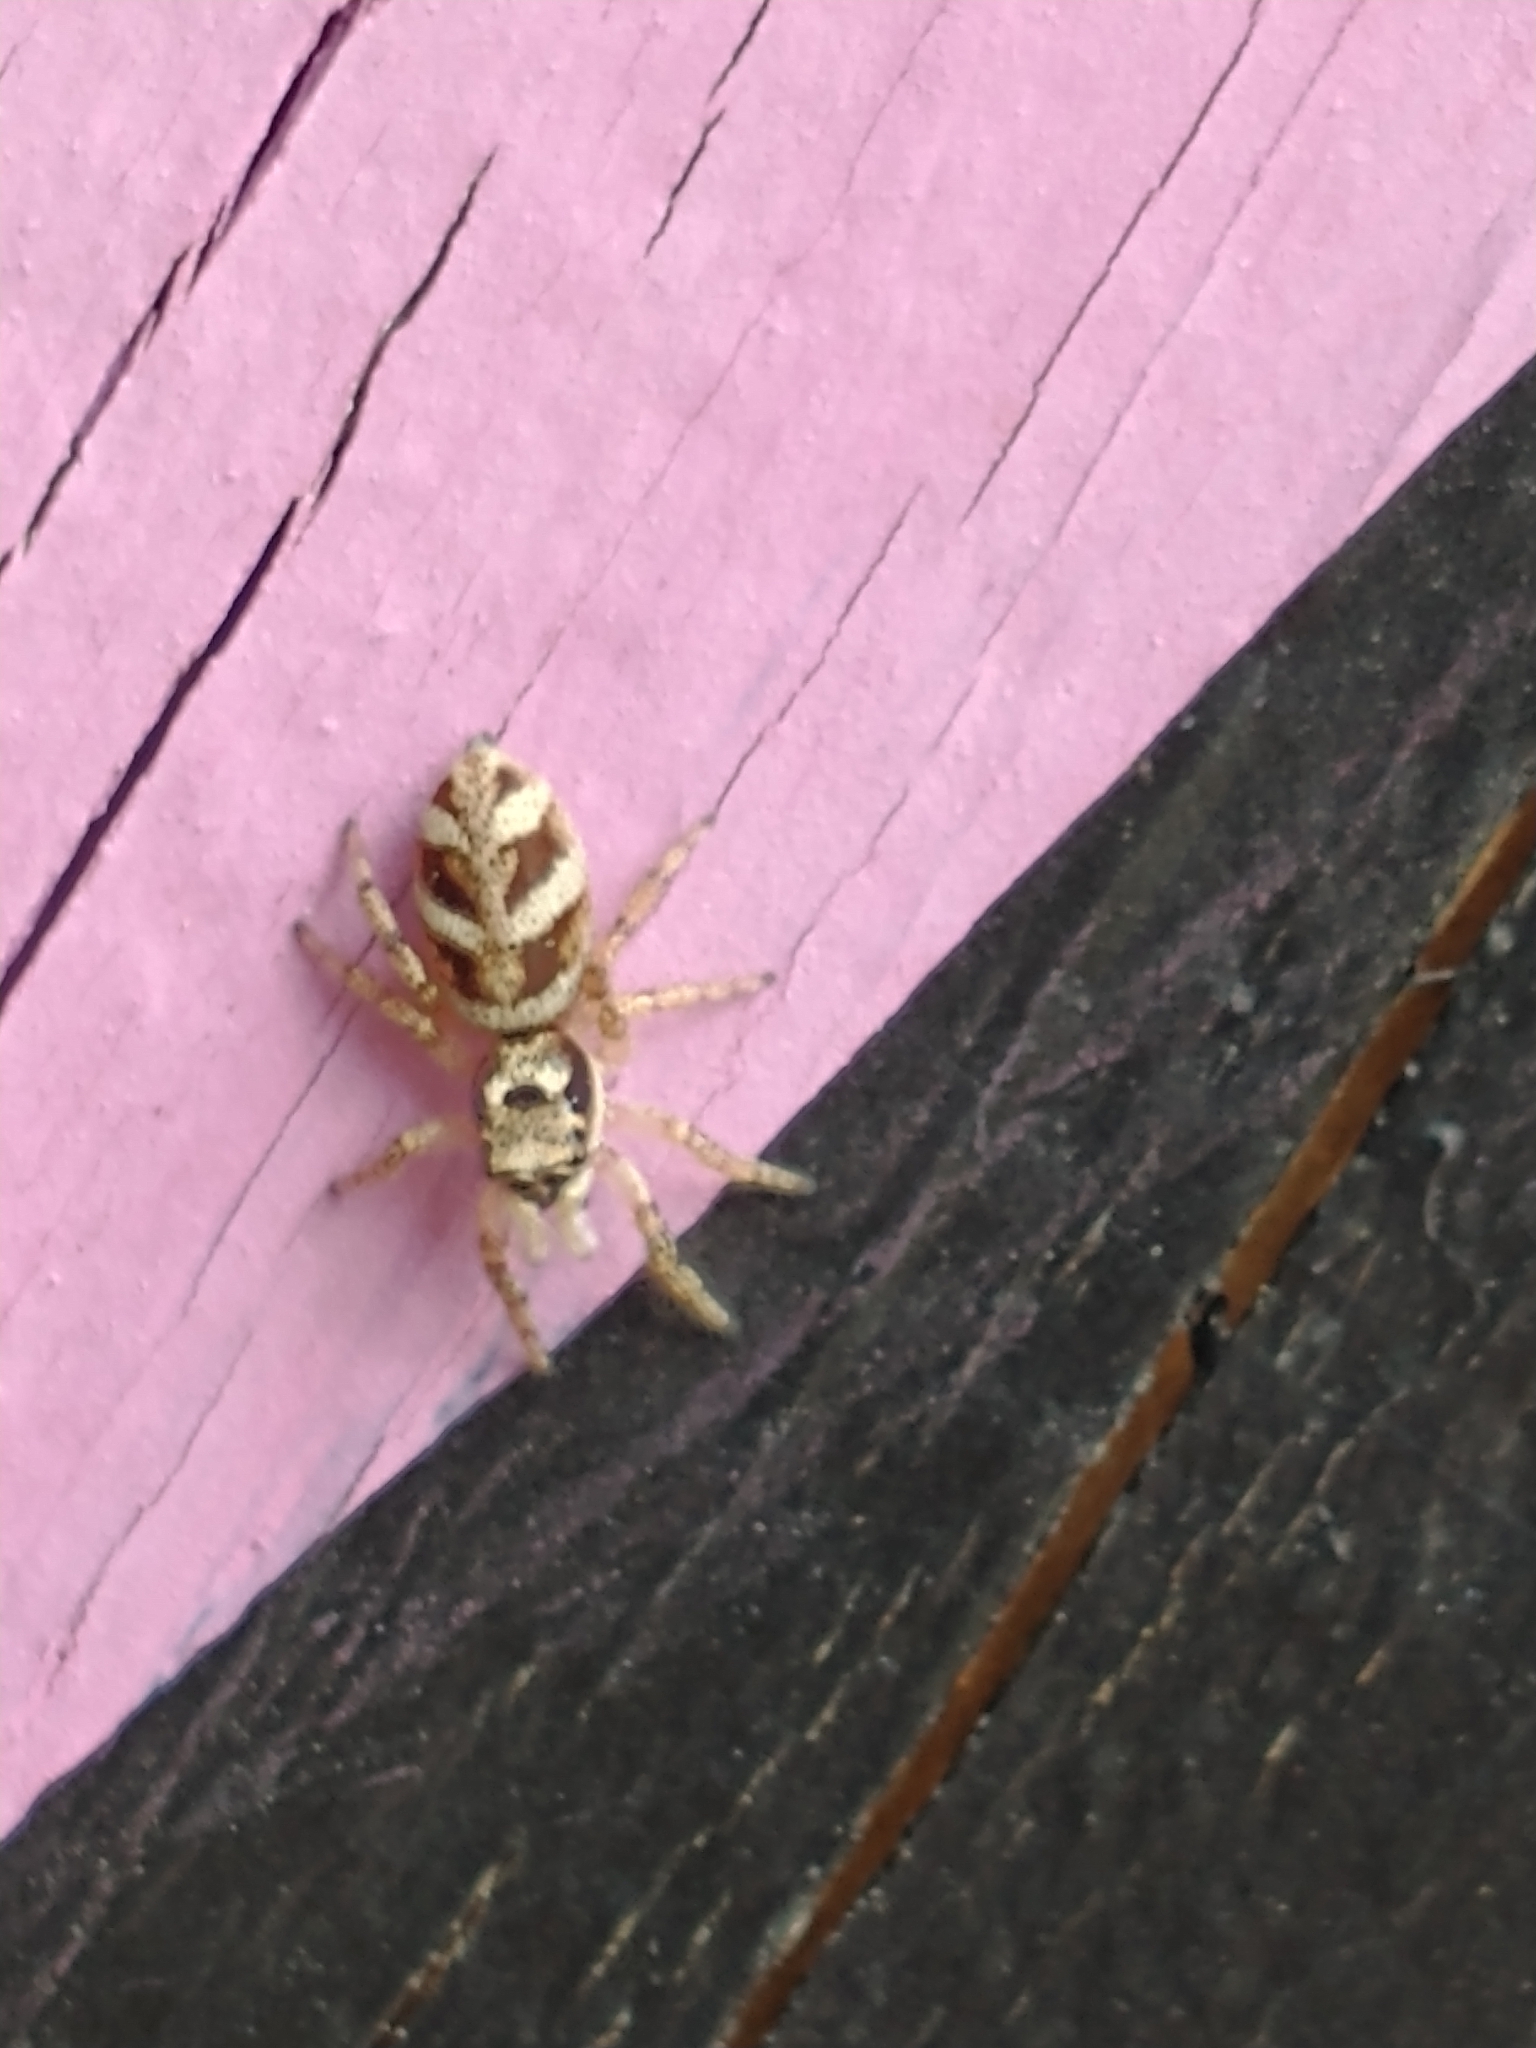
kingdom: Animalia
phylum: Arthropoda
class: Arachnida
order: Araneae
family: Salticidae
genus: Salticus
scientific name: Salticus scenicus
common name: Zebra jumper
